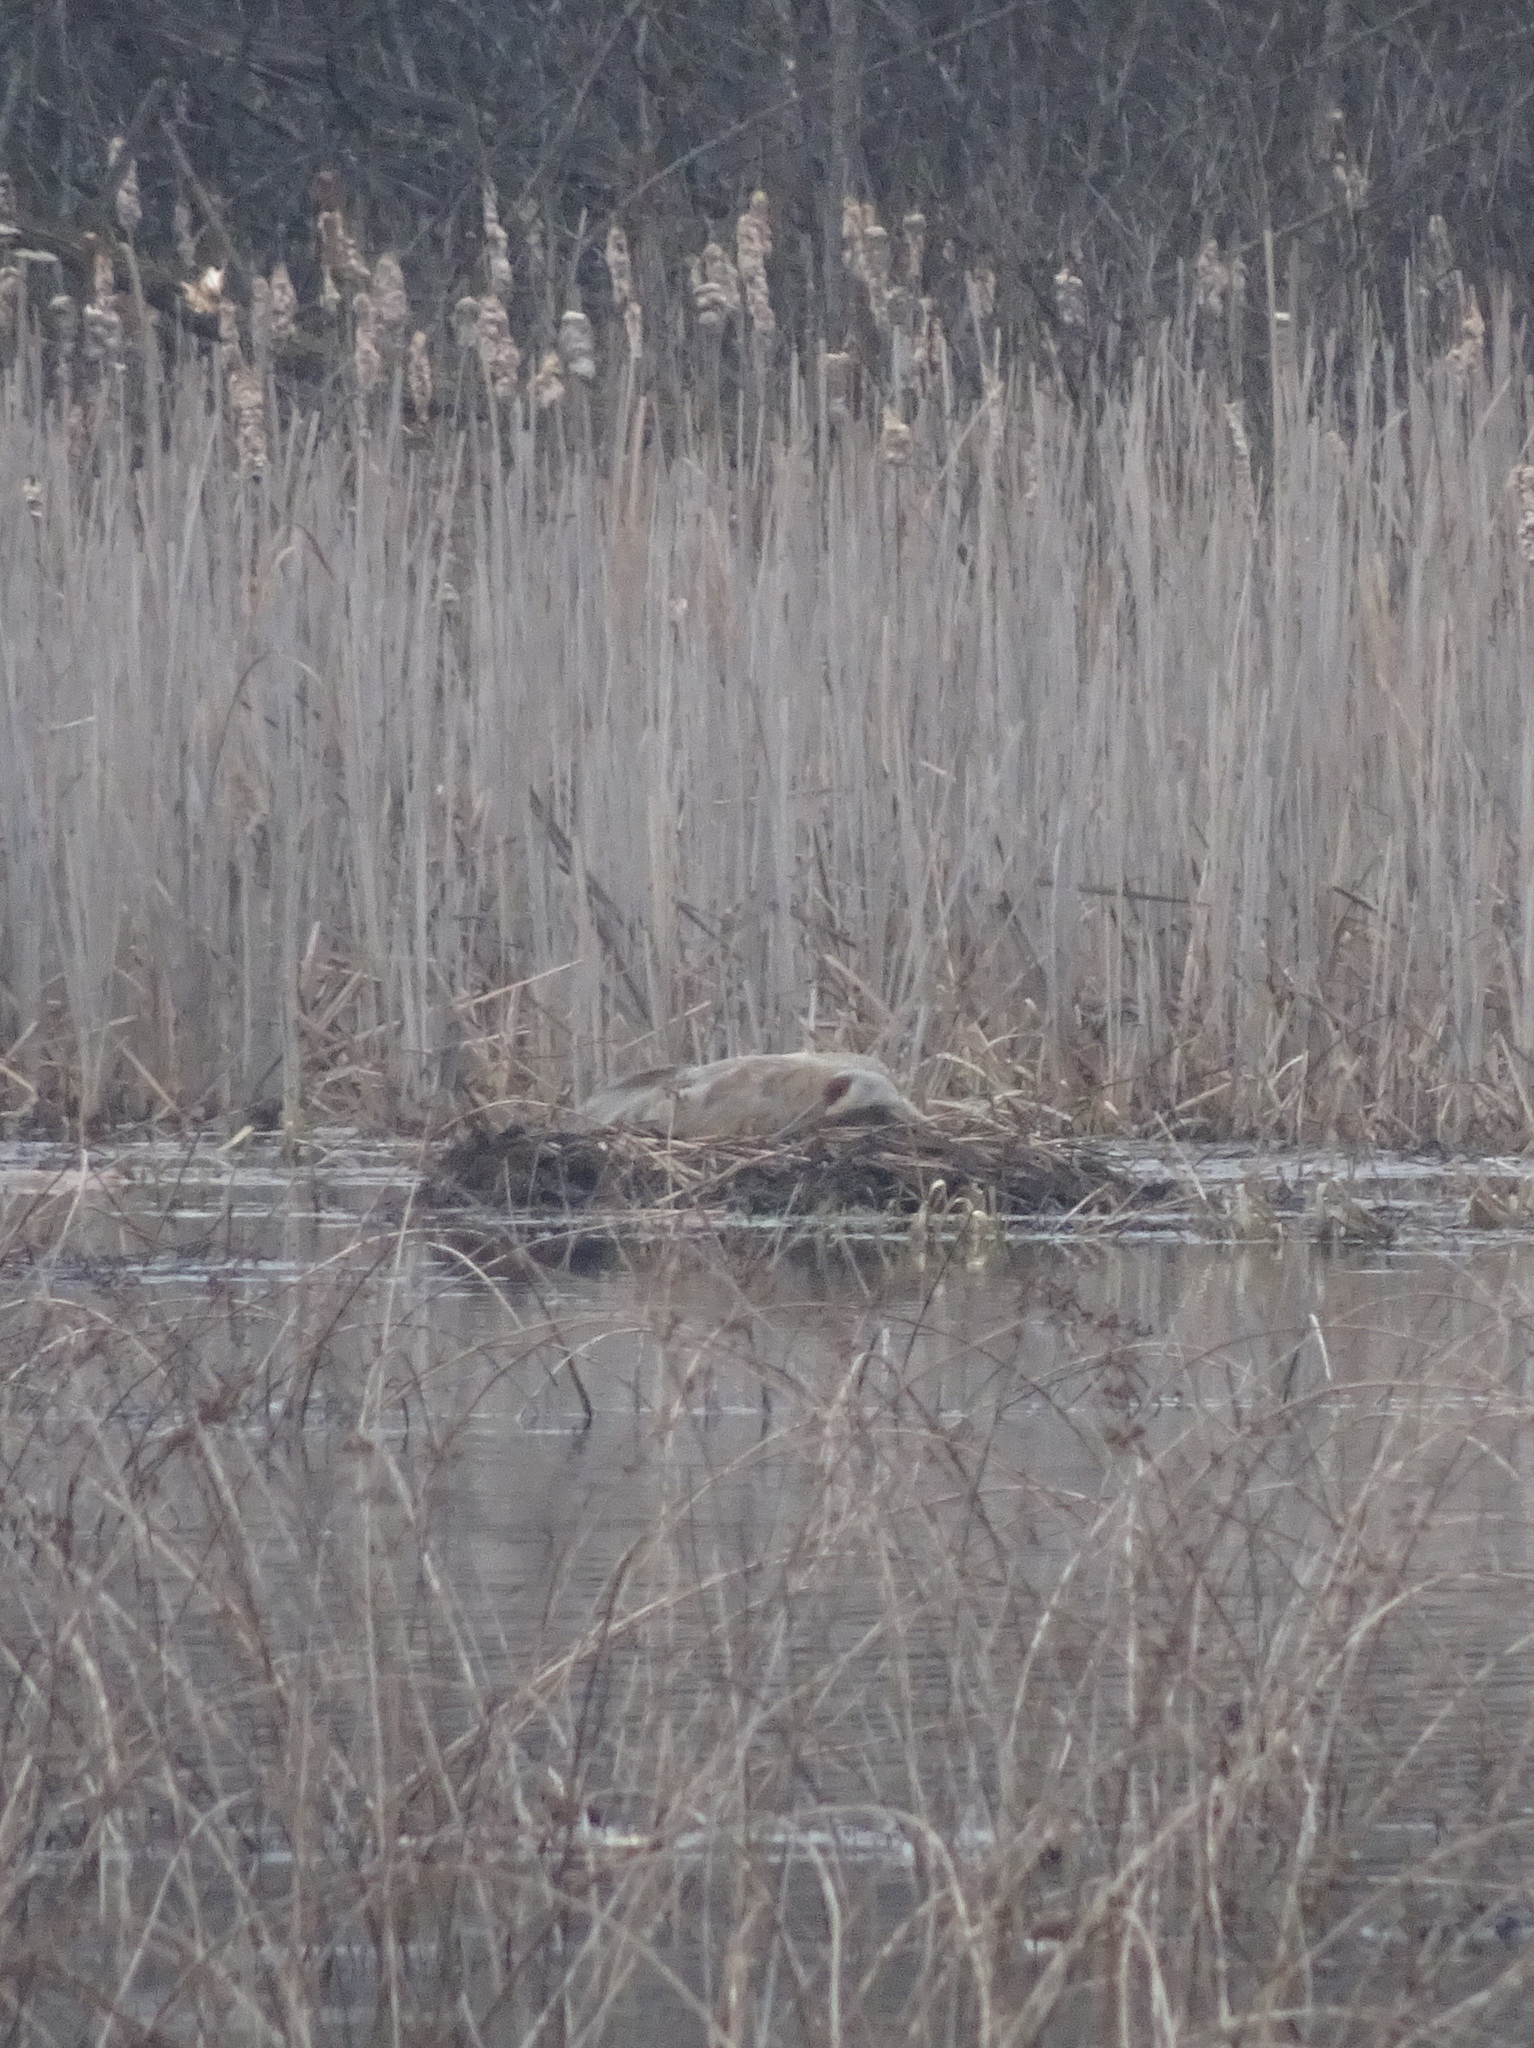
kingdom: Animalia
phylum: Chordata
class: Aves
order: Gruiformes
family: Gruidae
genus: Grus
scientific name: Grus canadensis
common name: Sandhill crane
